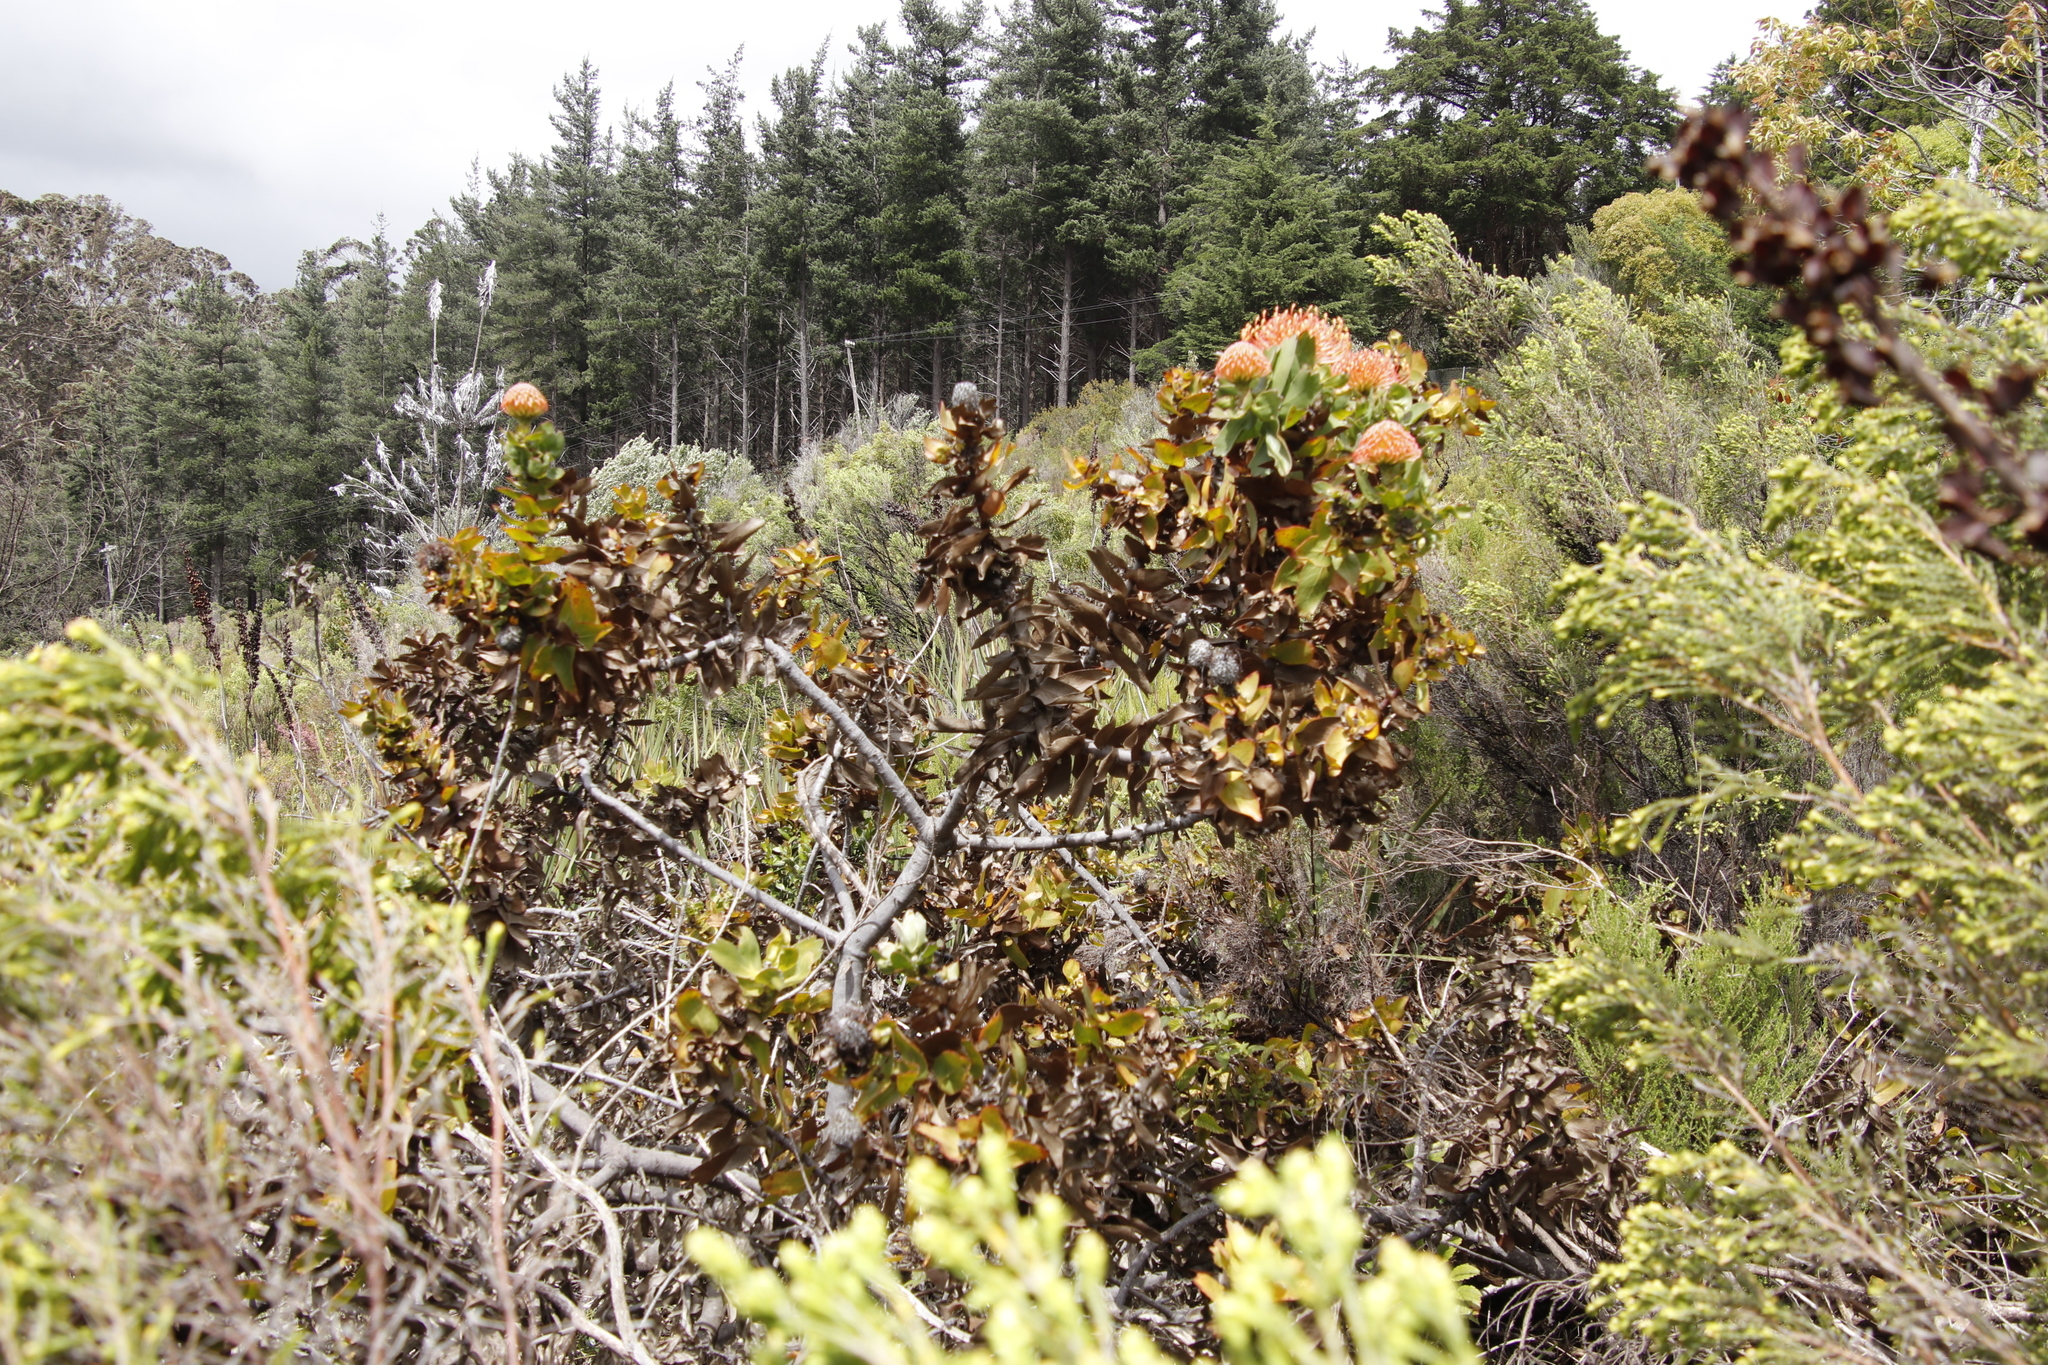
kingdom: Plantae
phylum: Tracheophyta
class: Magnoliopsida
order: Proteales
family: Proteaceae
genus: Leucospermum
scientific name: Leucospermum
